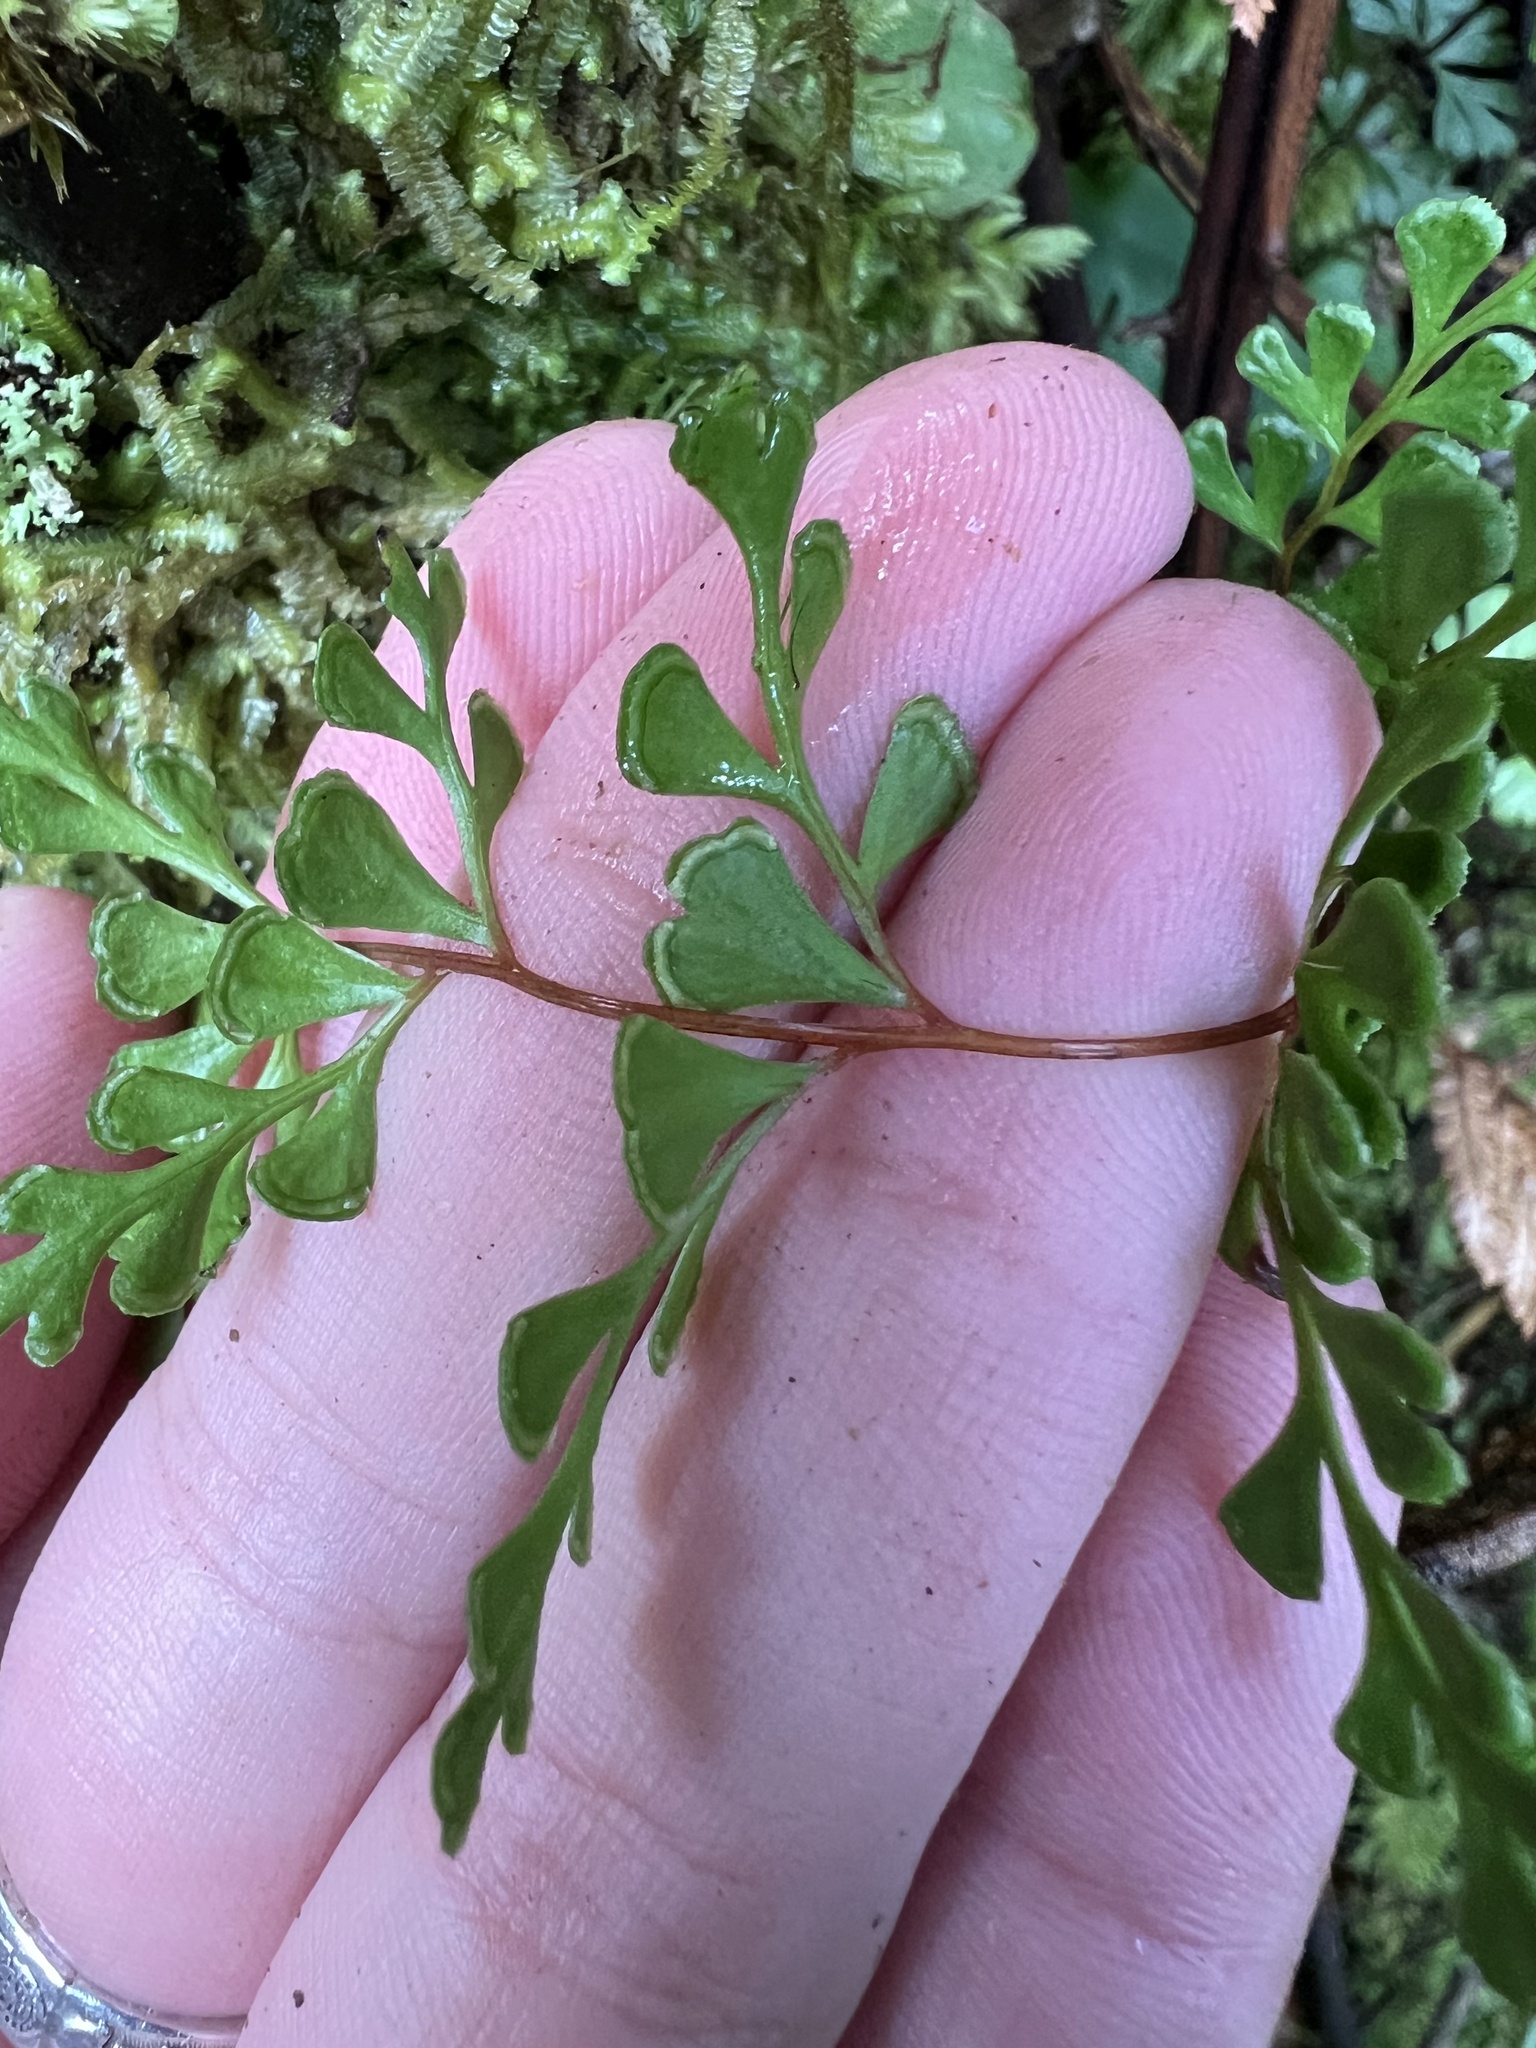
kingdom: Plantae
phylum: Tracheophyta
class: Polypodiopsida
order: Polypodiales
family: Lindsaeaceae
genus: Lindsaea
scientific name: Lindsaea trichomanoides
